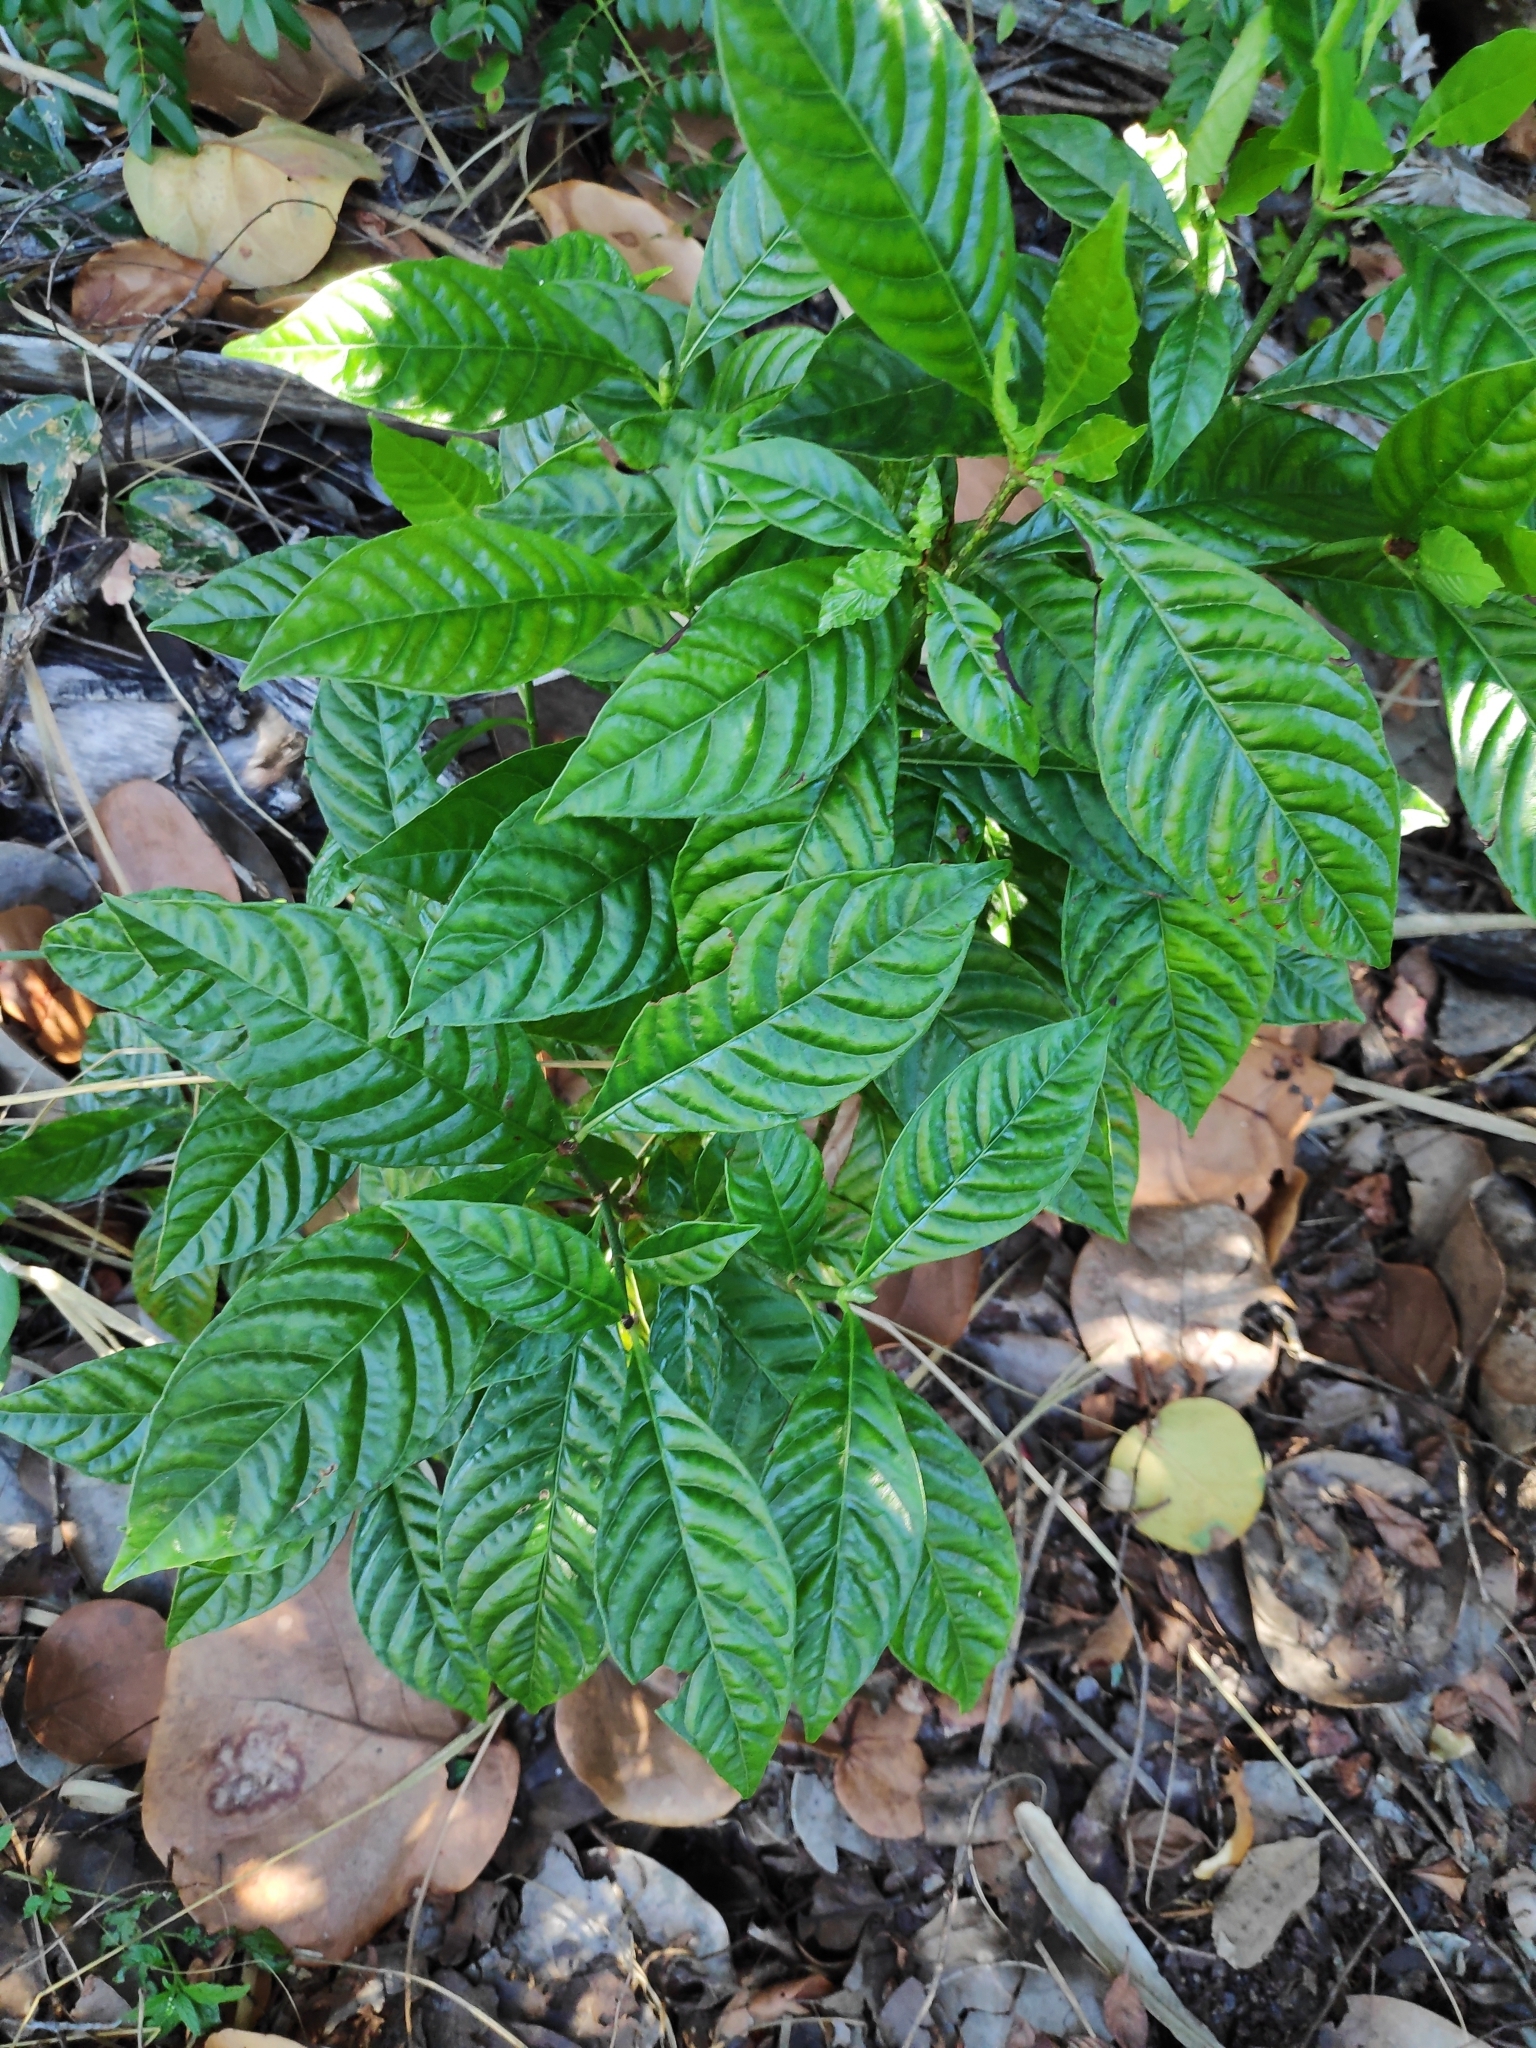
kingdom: Plantae
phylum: Tracheophyta
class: Magnoliopsida
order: Gentianales
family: Rubiaceae
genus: Psychotria
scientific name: Psychotria nervosa
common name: Bastard cankerberry
